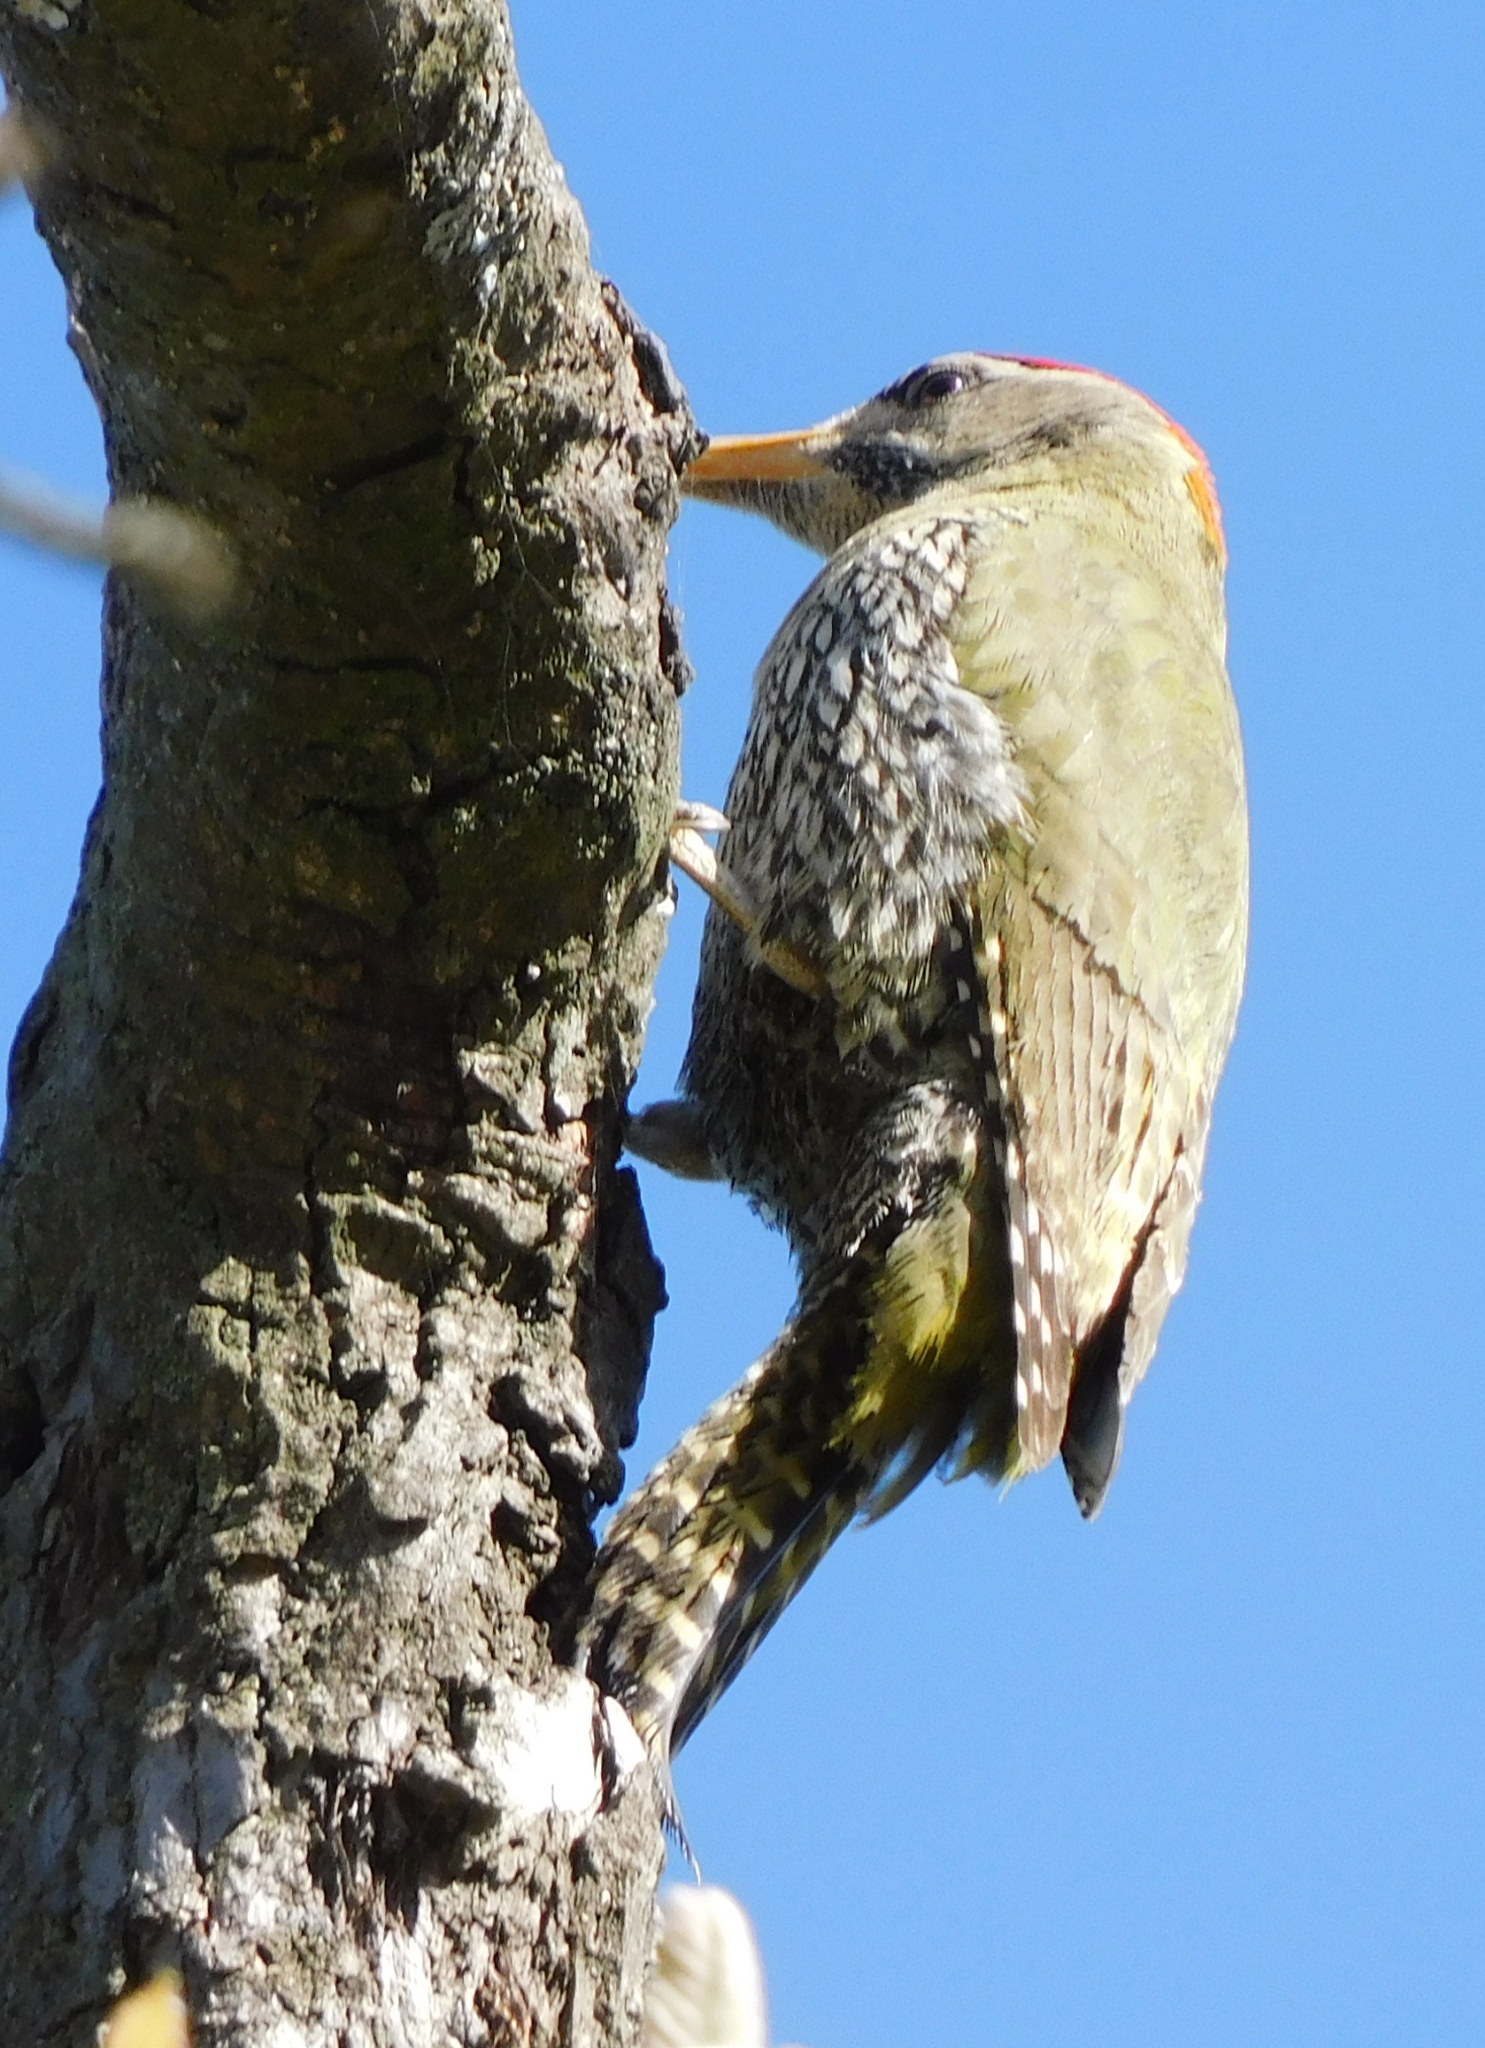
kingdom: Animalia
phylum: Chordata
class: Aves
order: Piciformes
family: Picidae
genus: Picus
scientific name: Picus squamatus
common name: Scaly-bellied woodpecker
